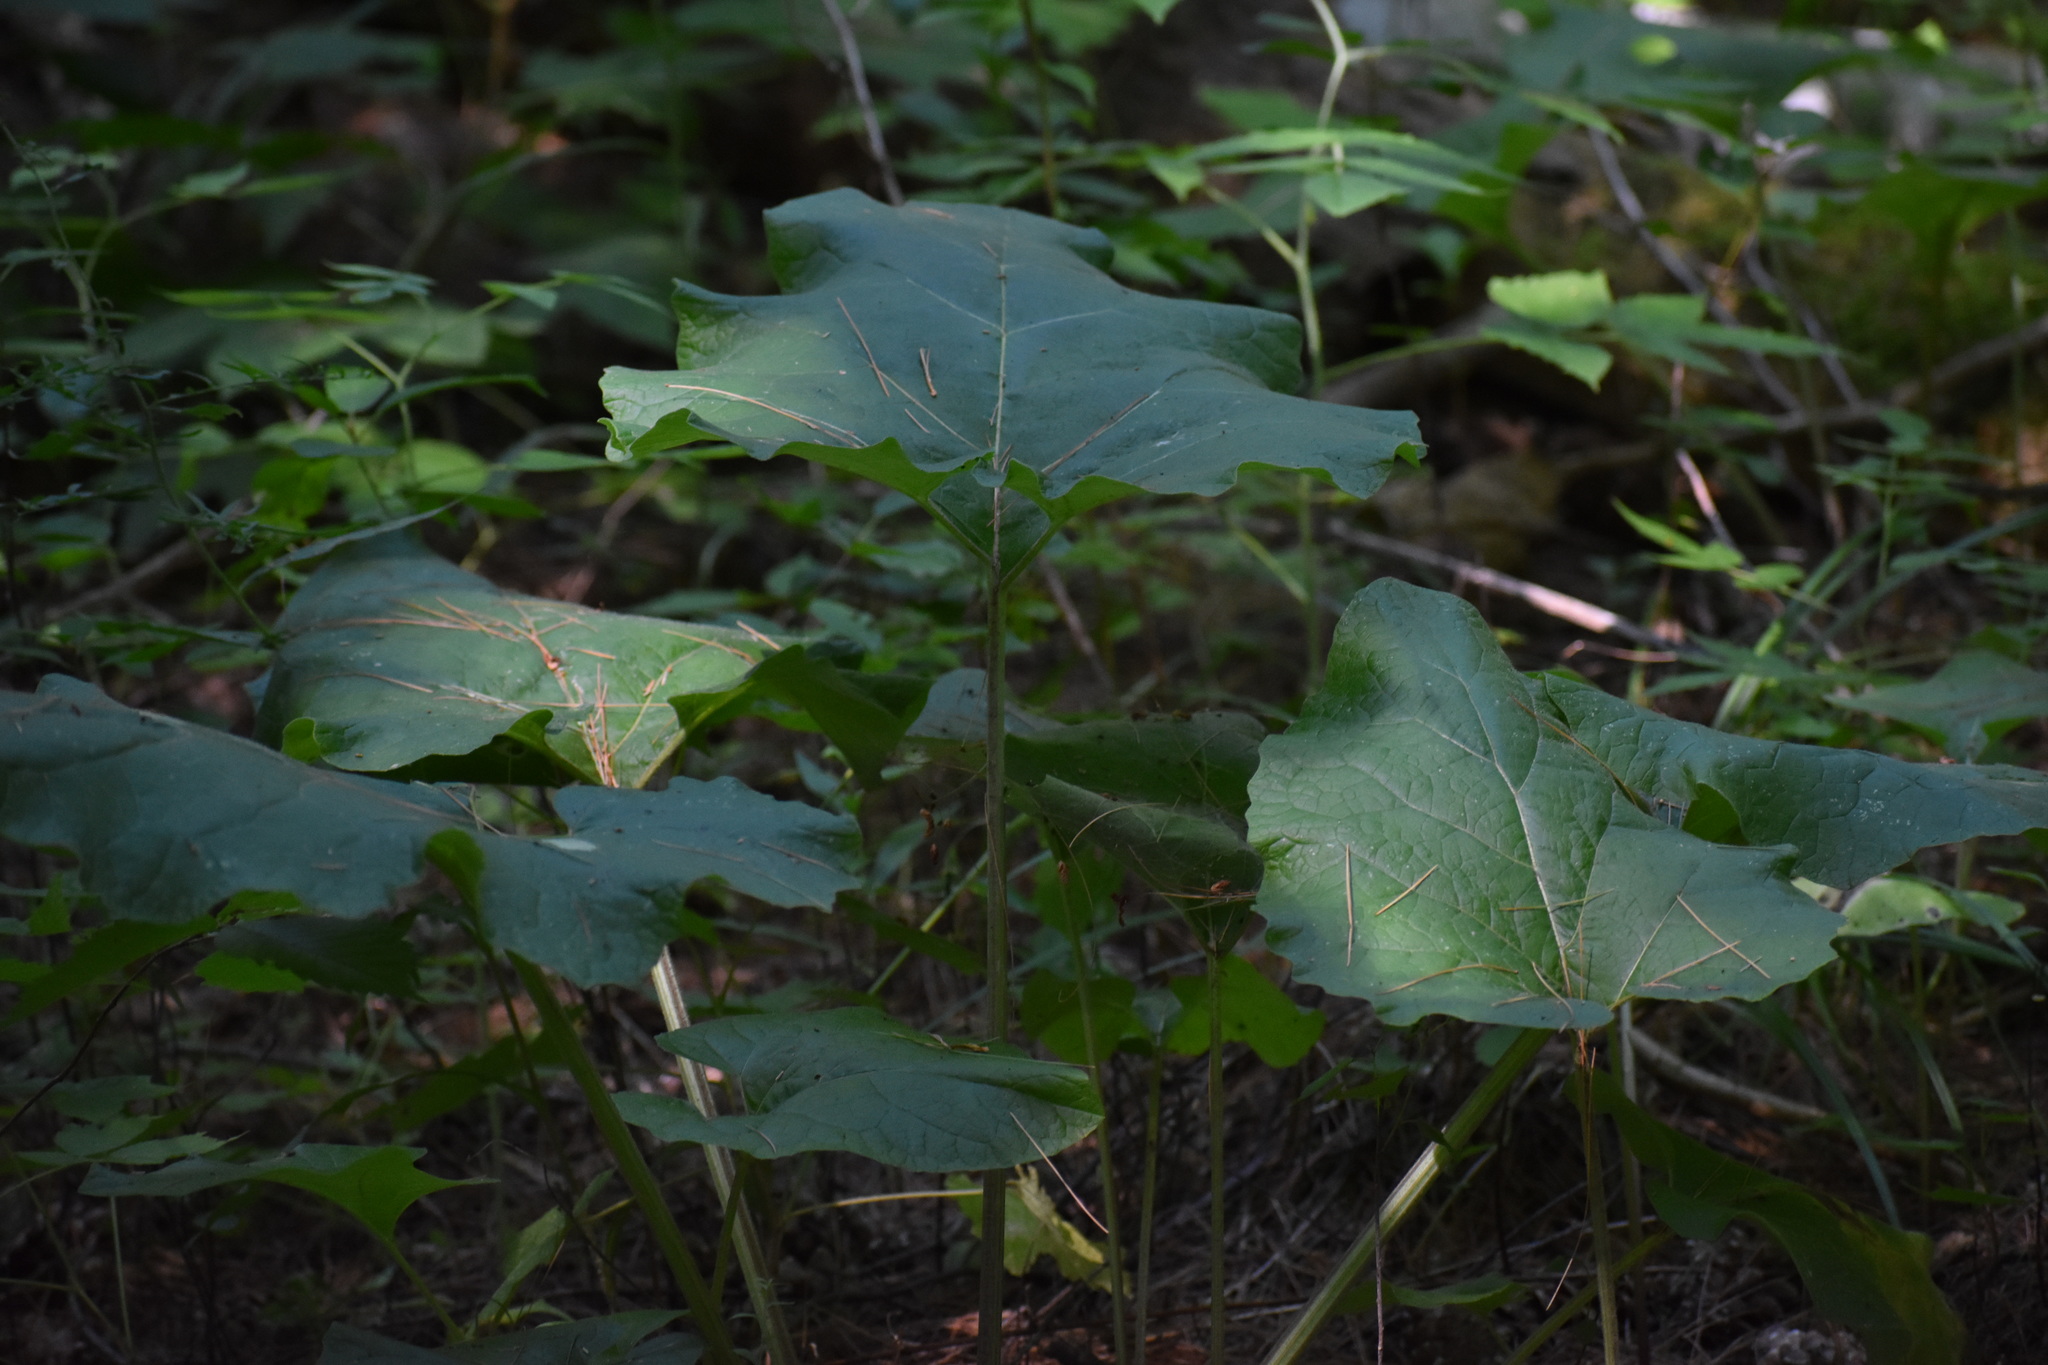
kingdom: Plantae
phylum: Tracheophyta
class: Magnoliopsida
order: Asterales
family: Asteraceae
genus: Arctium
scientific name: Arctium
